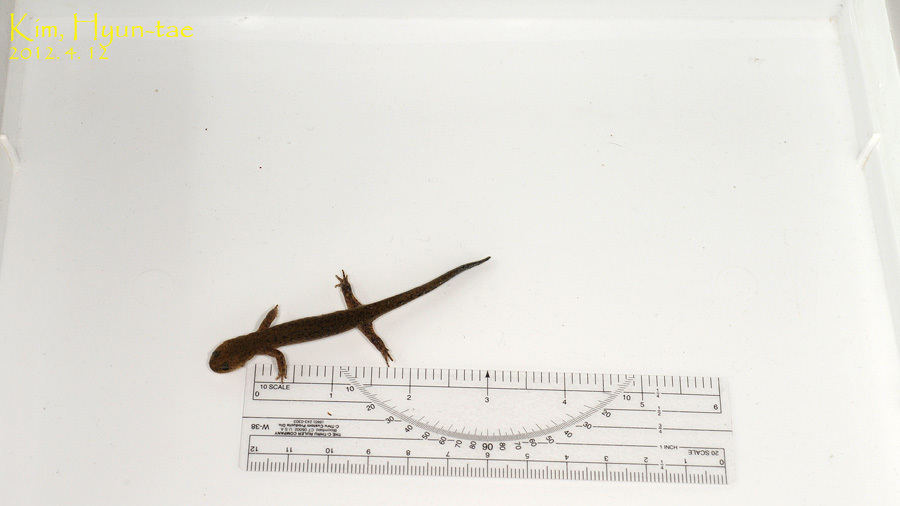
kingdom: Animalia
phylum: Chordata
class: Amphibia
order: Caudata
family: Hynobiidae
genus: Hynobius
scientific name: Hynobius quelpaertensis
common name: Cheju salamander
